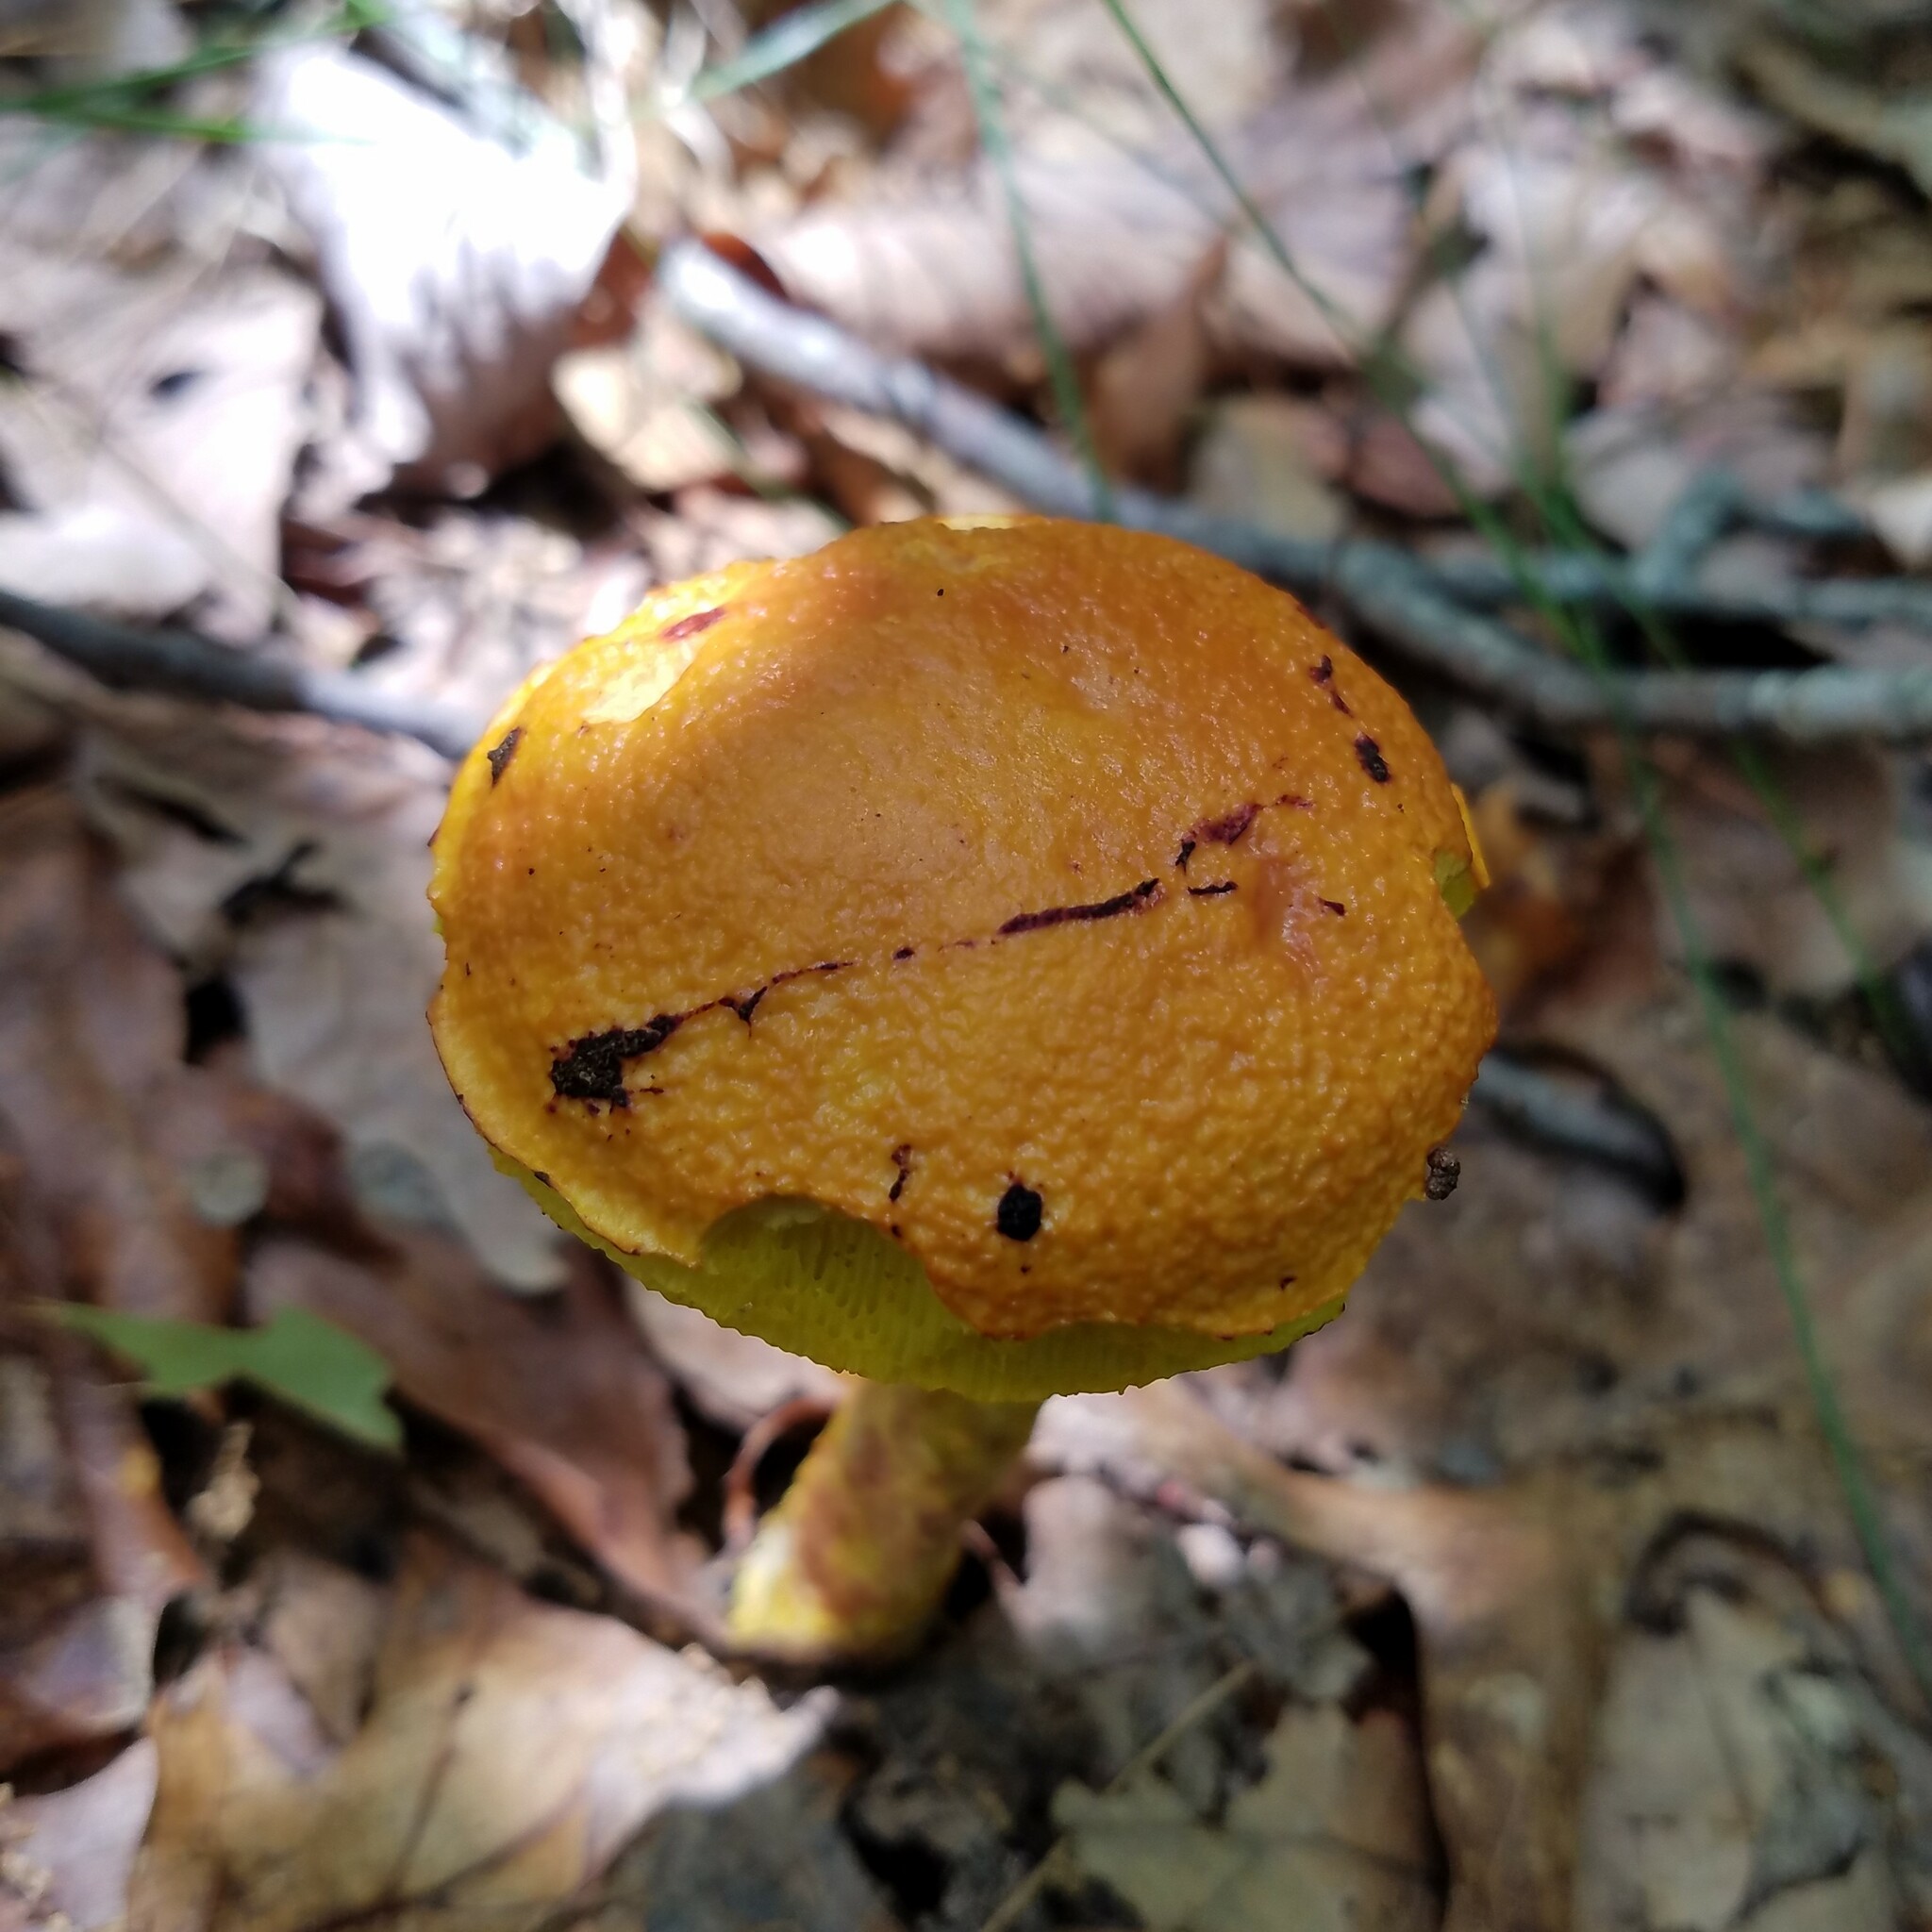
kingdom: Fungi
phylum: Basidiomycota
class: Agaricomycetes
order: Boletales
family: Boletaceae
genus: Aureoboletus
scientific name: Aureoboletus betula
